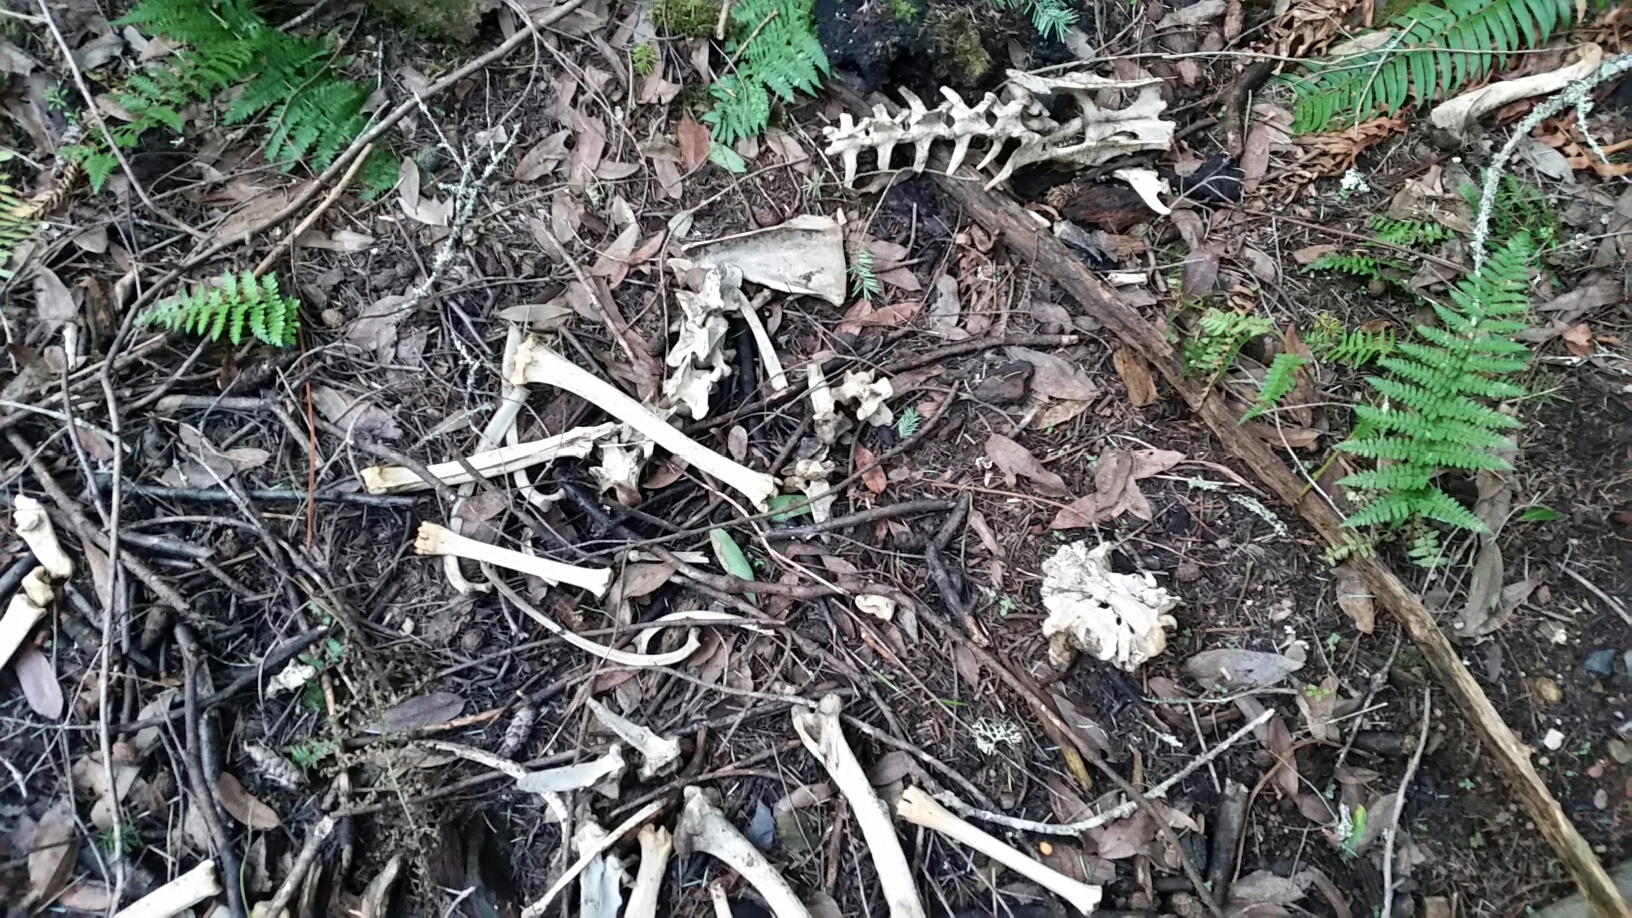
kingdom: Animalia
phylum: Chordata
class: Mammalia
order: Artiodactyla
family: Cervidae
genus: Odocoileus
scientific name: Odocoileus hemionus
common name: Mule deer
